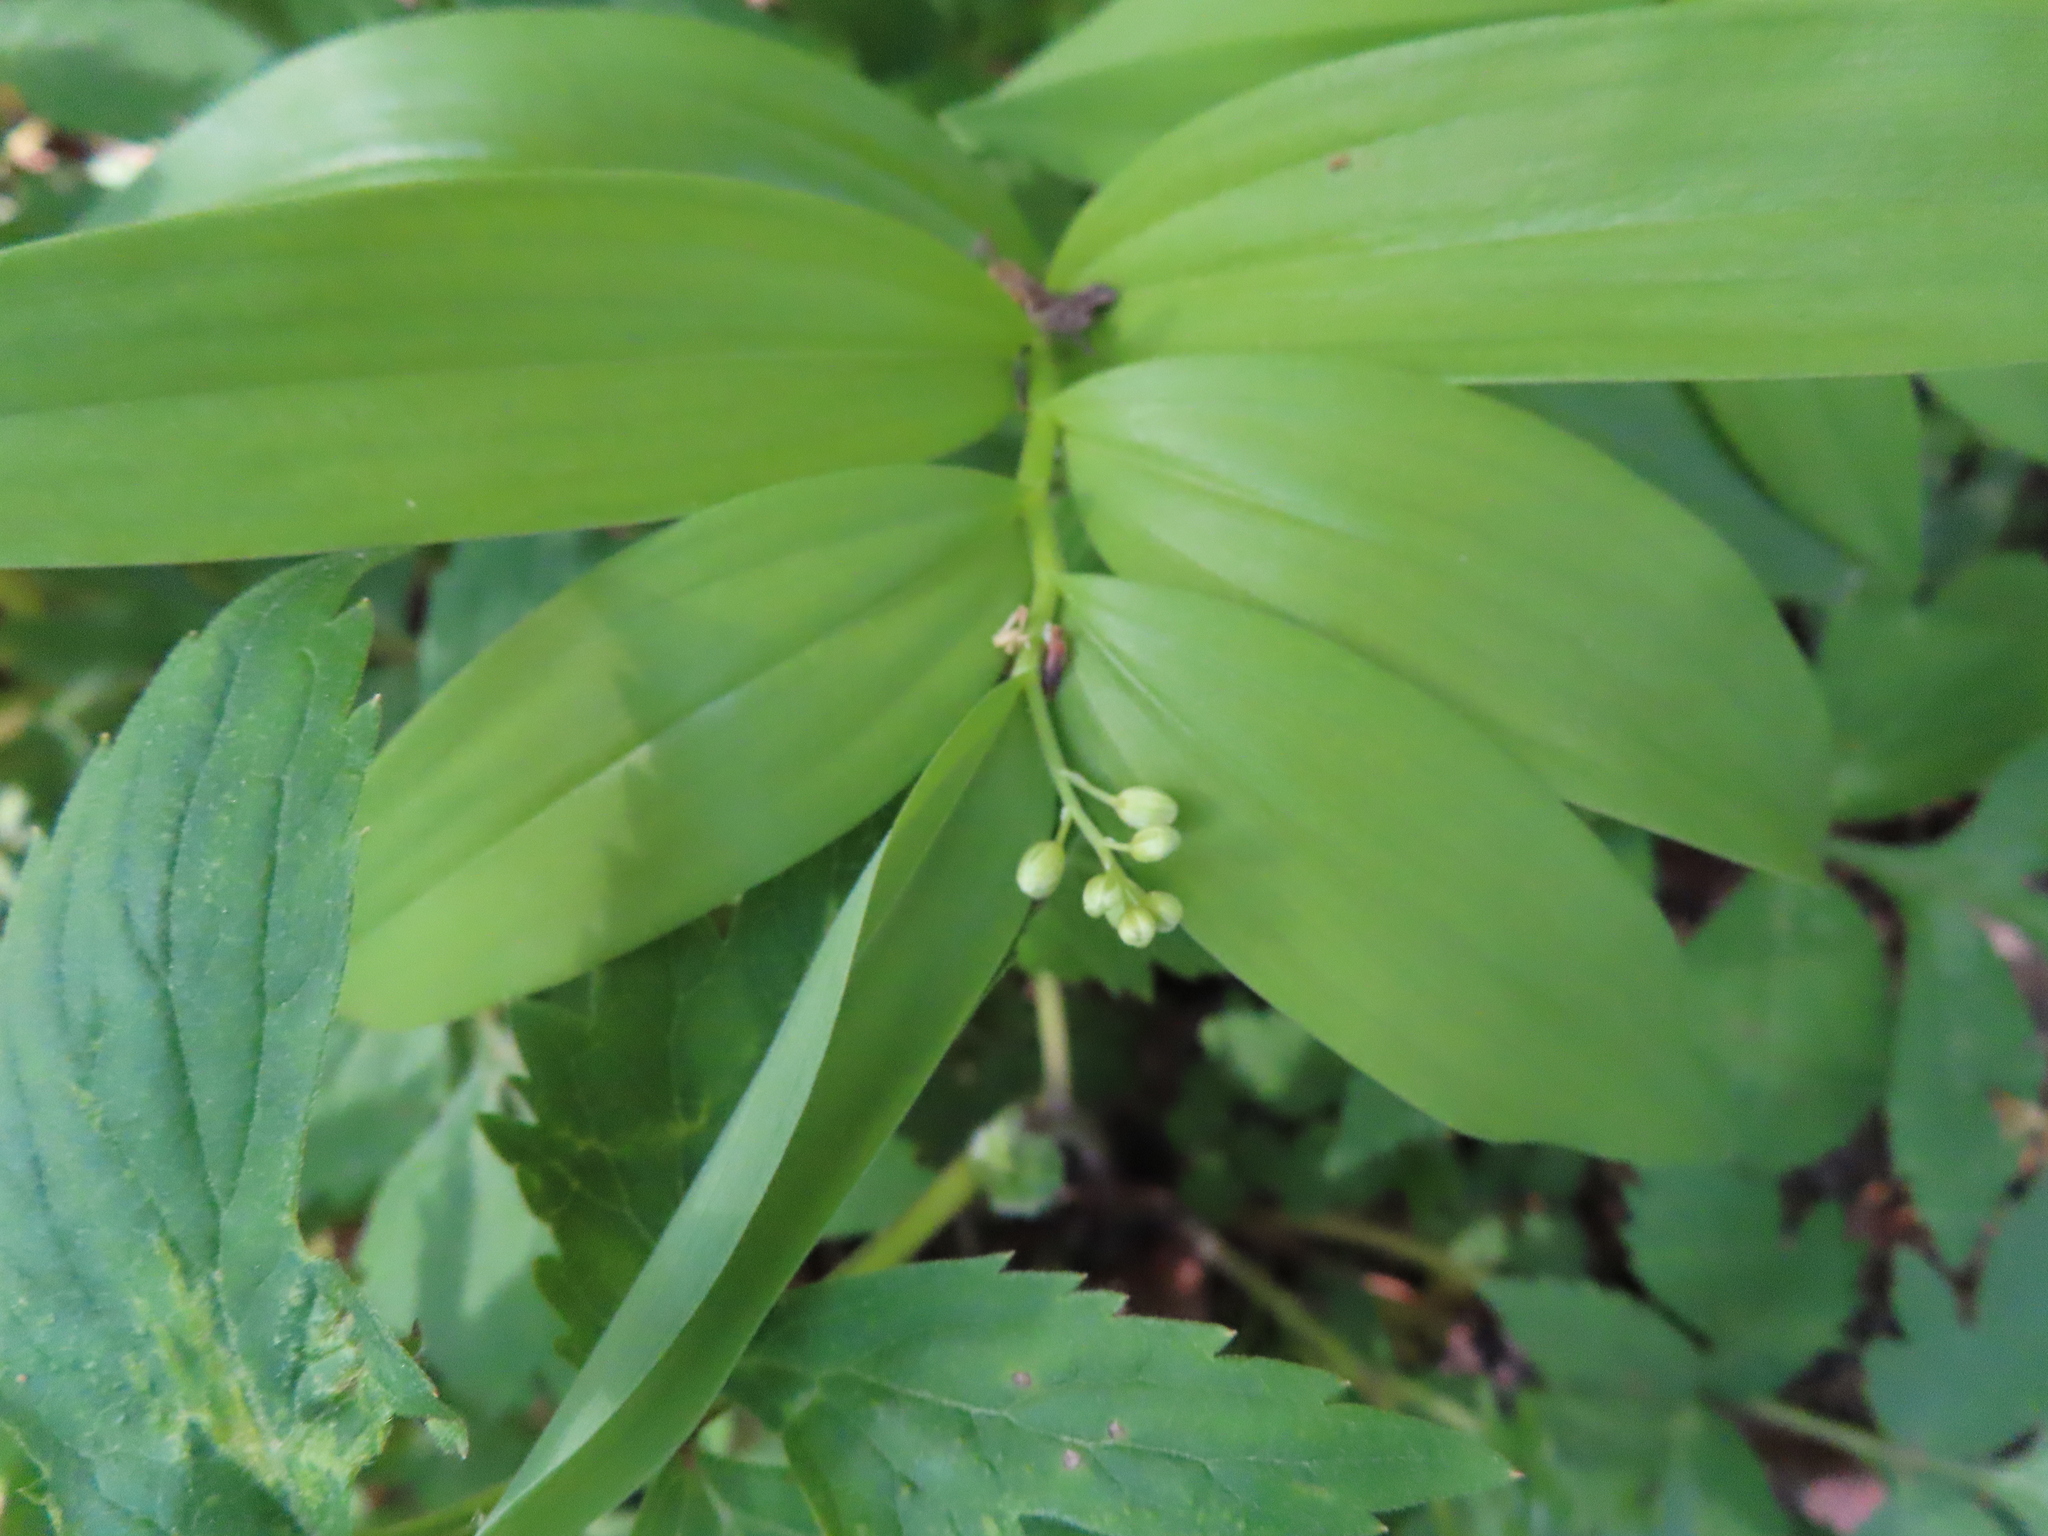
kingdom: Plantae
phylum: Tracheophyta
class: Liliopsida
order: Asparagales
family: Asparagaceae
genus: Maianthemum
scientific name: Maianthemum stellatum
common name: Little false solomon's seal
